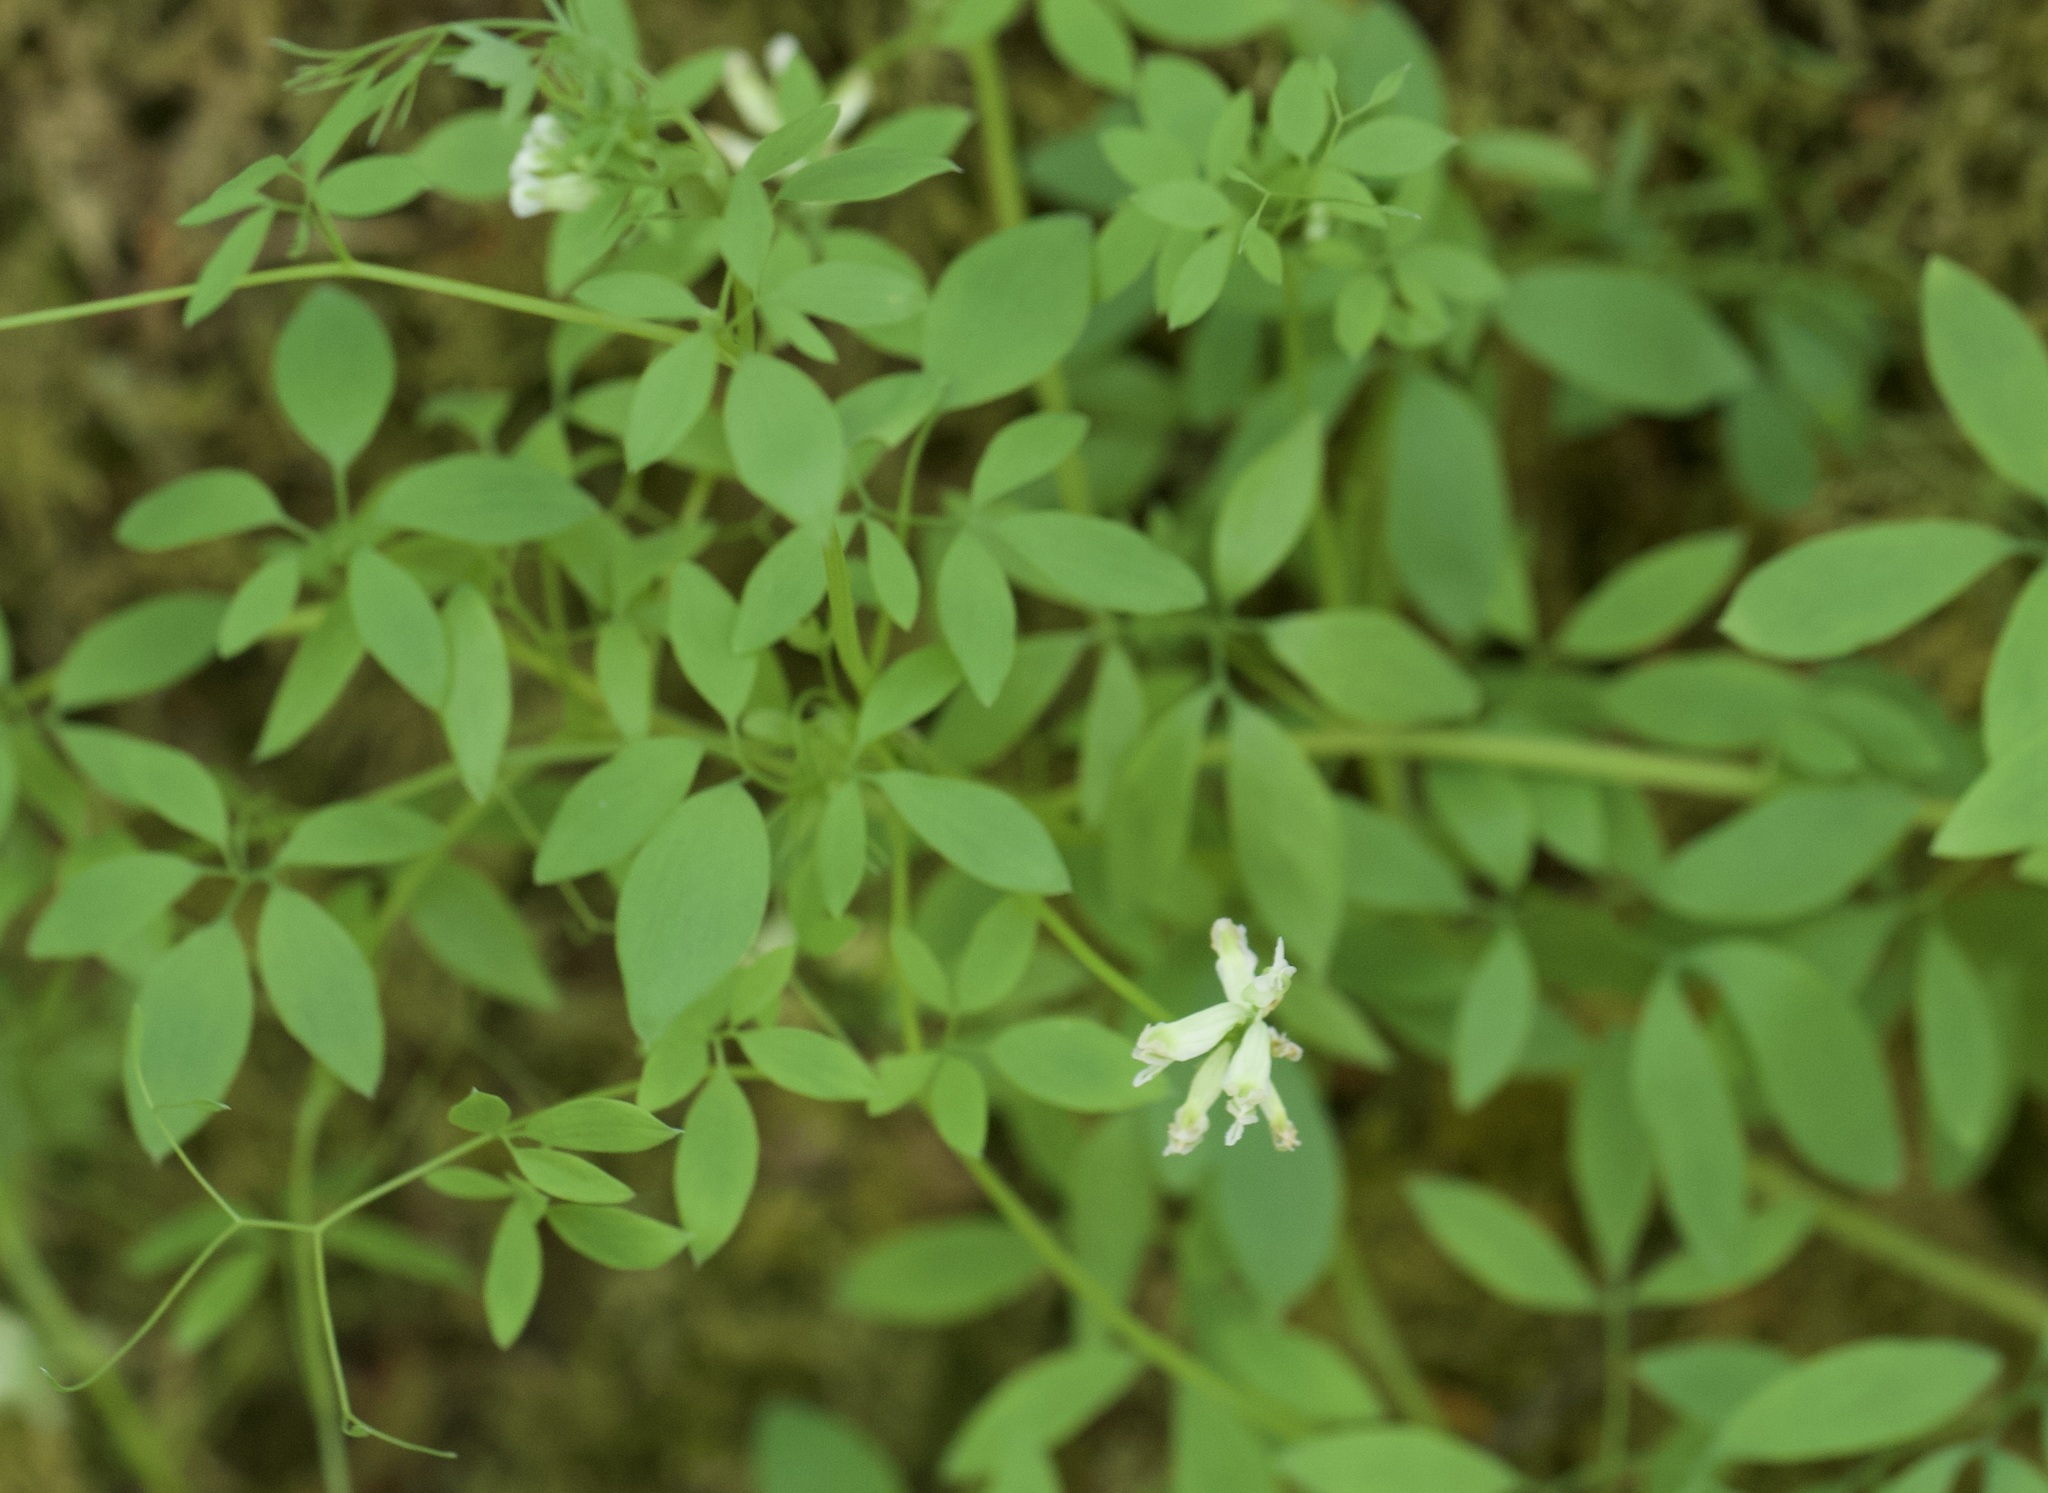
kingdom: Plantae
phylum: Tracheophyta
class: Magnoliopsida
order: Ranunculales
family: Papaveraceae
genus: Ceratocapnos
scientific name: Ceratocapnos claviculata
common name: Climbing corydalis
